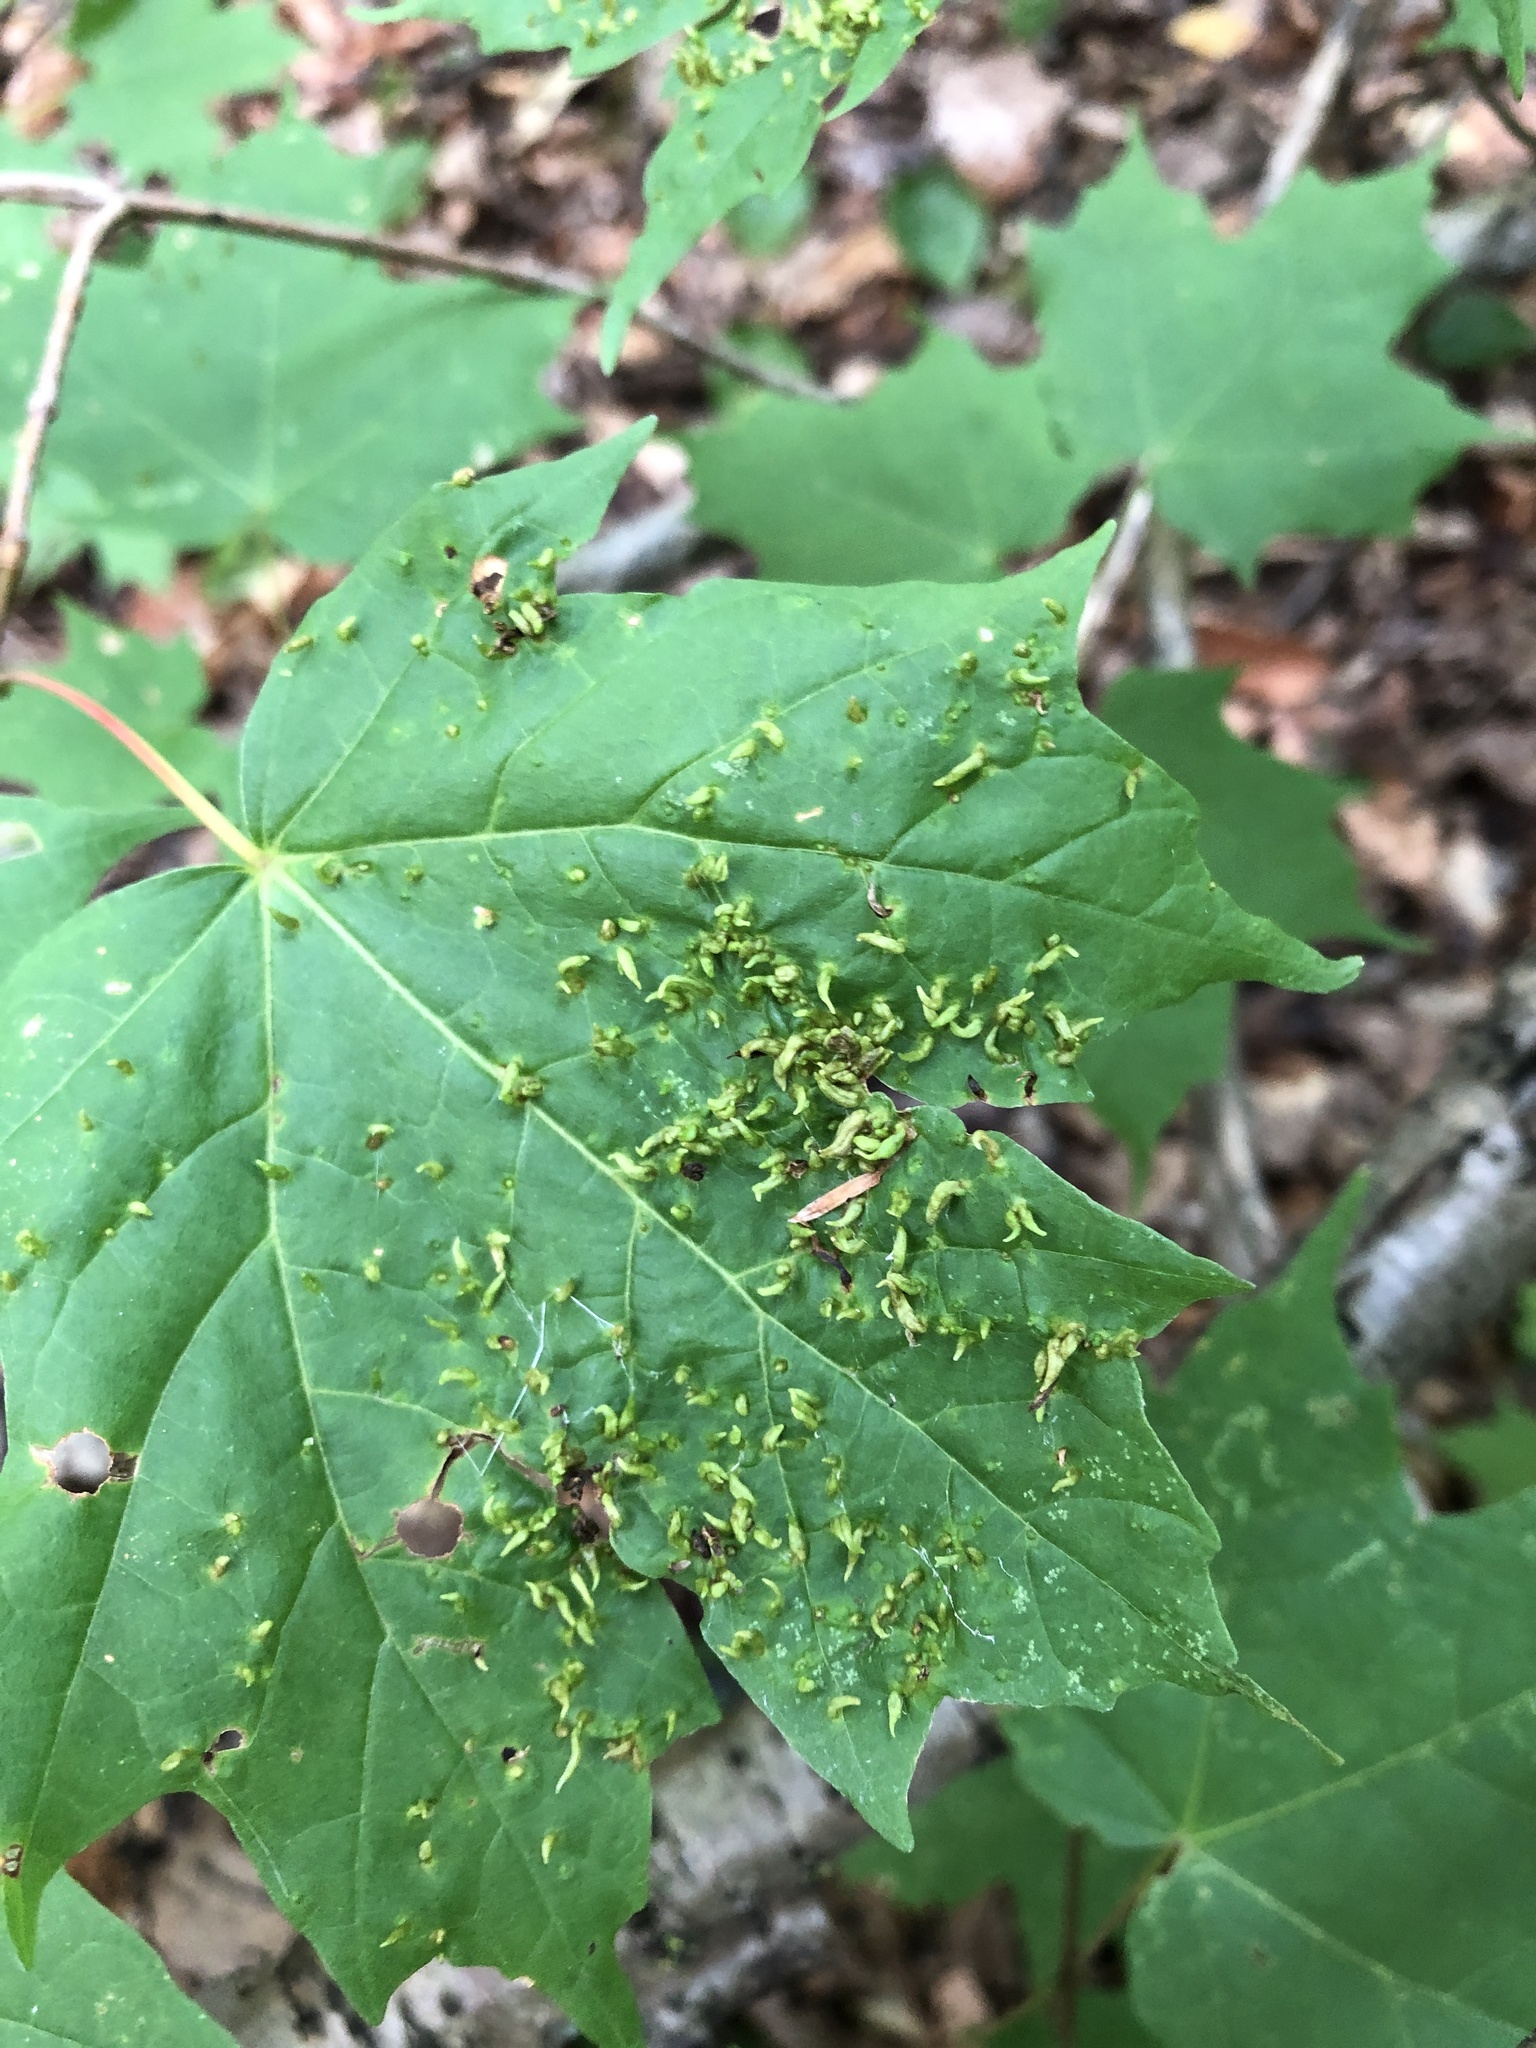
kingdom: Animalia
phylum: Arthropoda
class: Arachnida
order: Trombidiformes
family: Eriophyidae
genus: Vasates
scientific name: Vasates aceriscrumena
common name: Maple spindle gall mite
